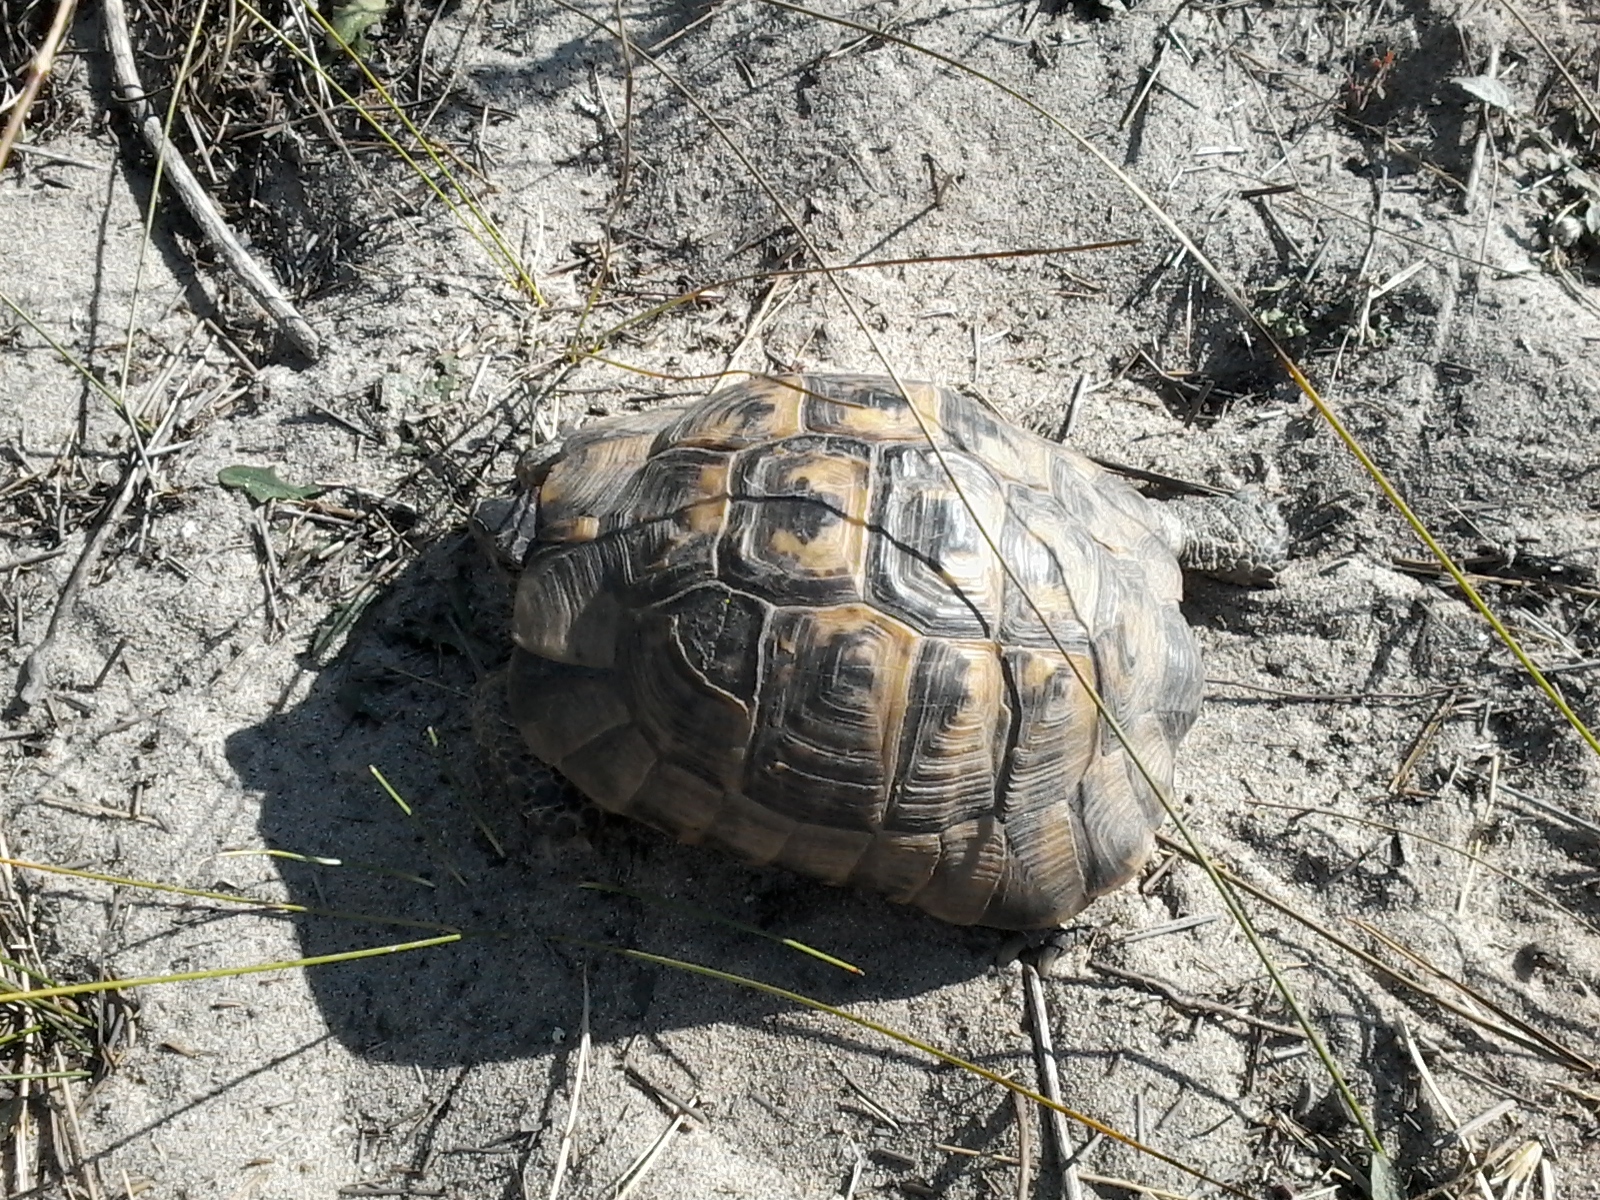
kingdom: Animalia
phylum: Chordata
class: Testudines
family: Testudinidae
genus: Testudo
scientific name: Testudo graeca
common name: Common tortoise
